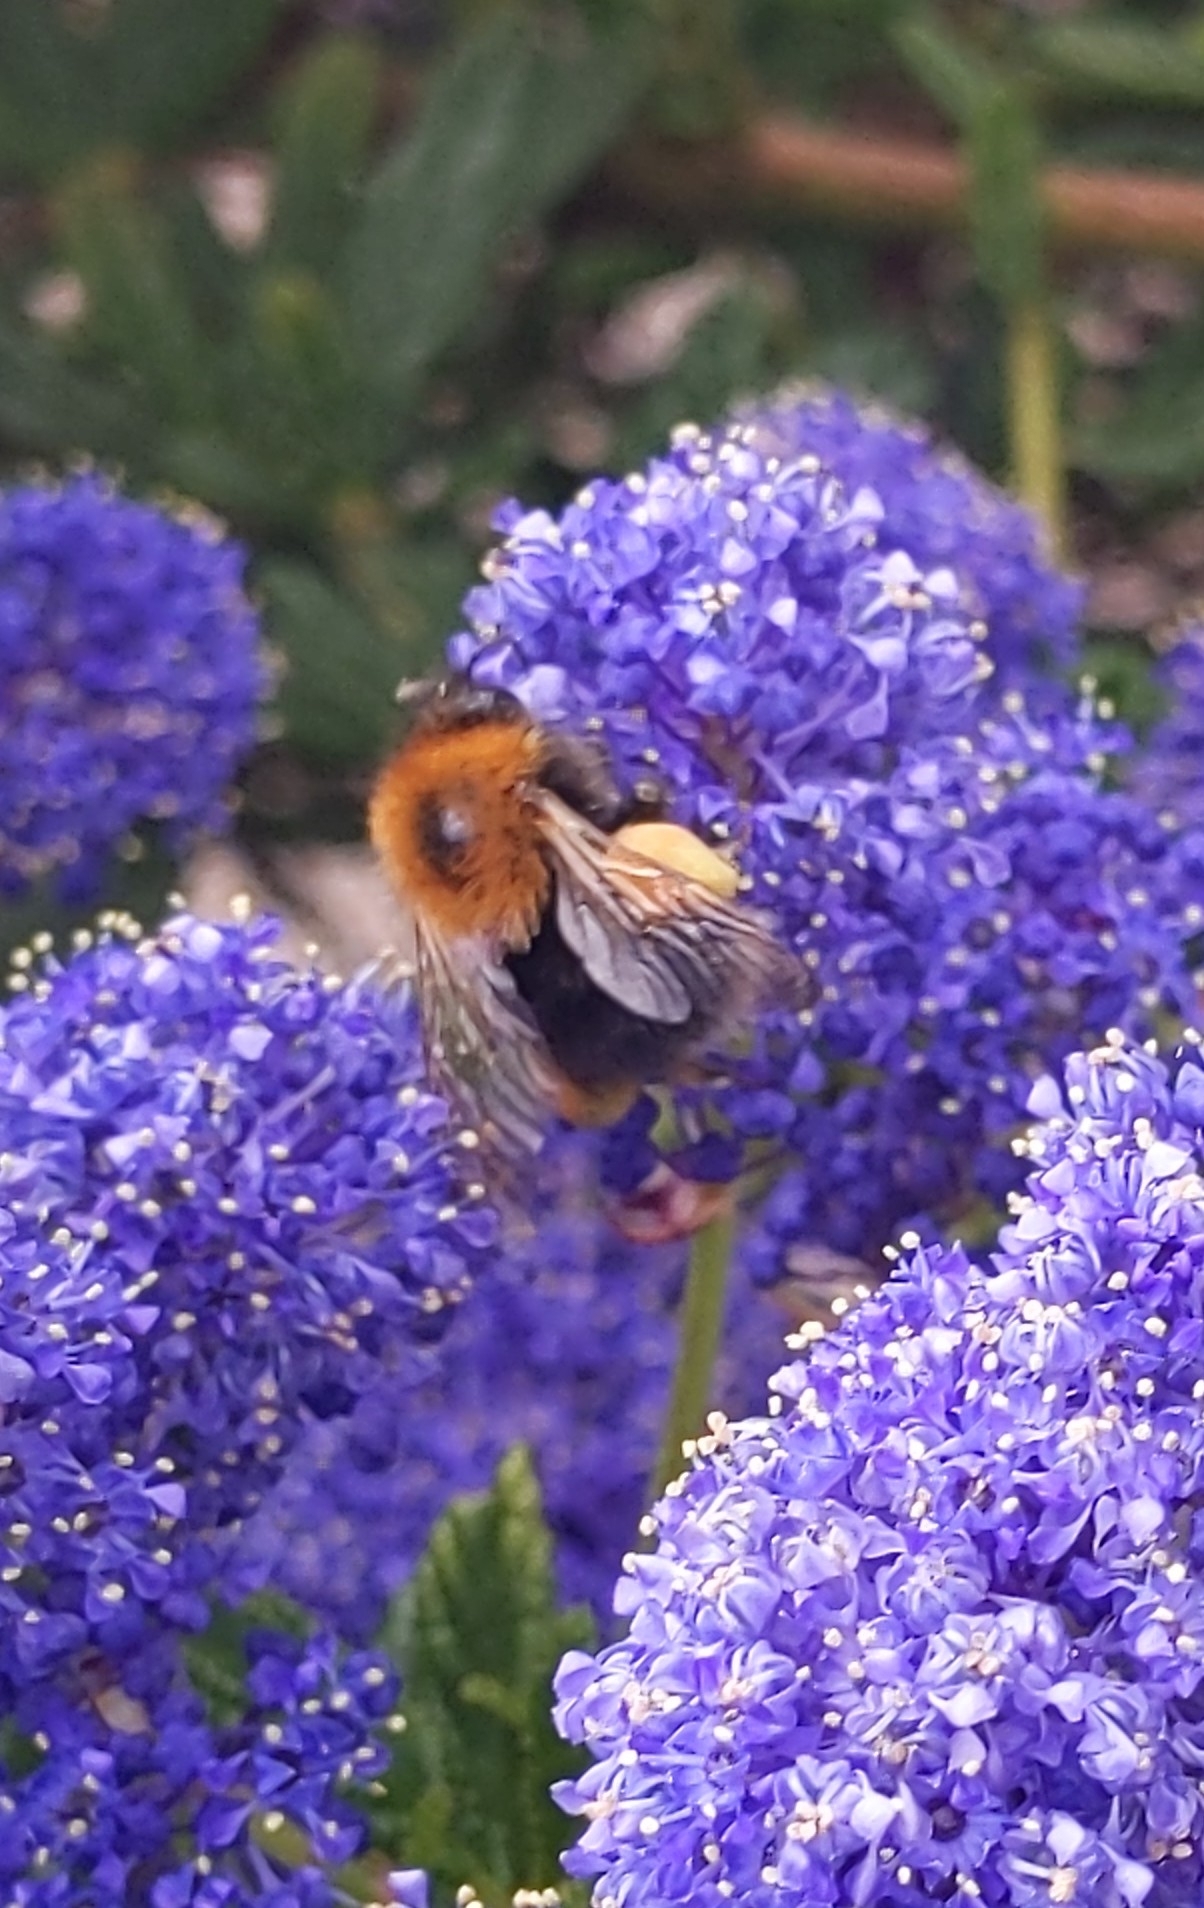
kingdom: Animalia
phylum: Arthropoda
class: Insecta
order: Hymenoptera
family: Apidae
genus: Bombus
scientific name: Bombus hypnorum
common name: New garden bumblebee
